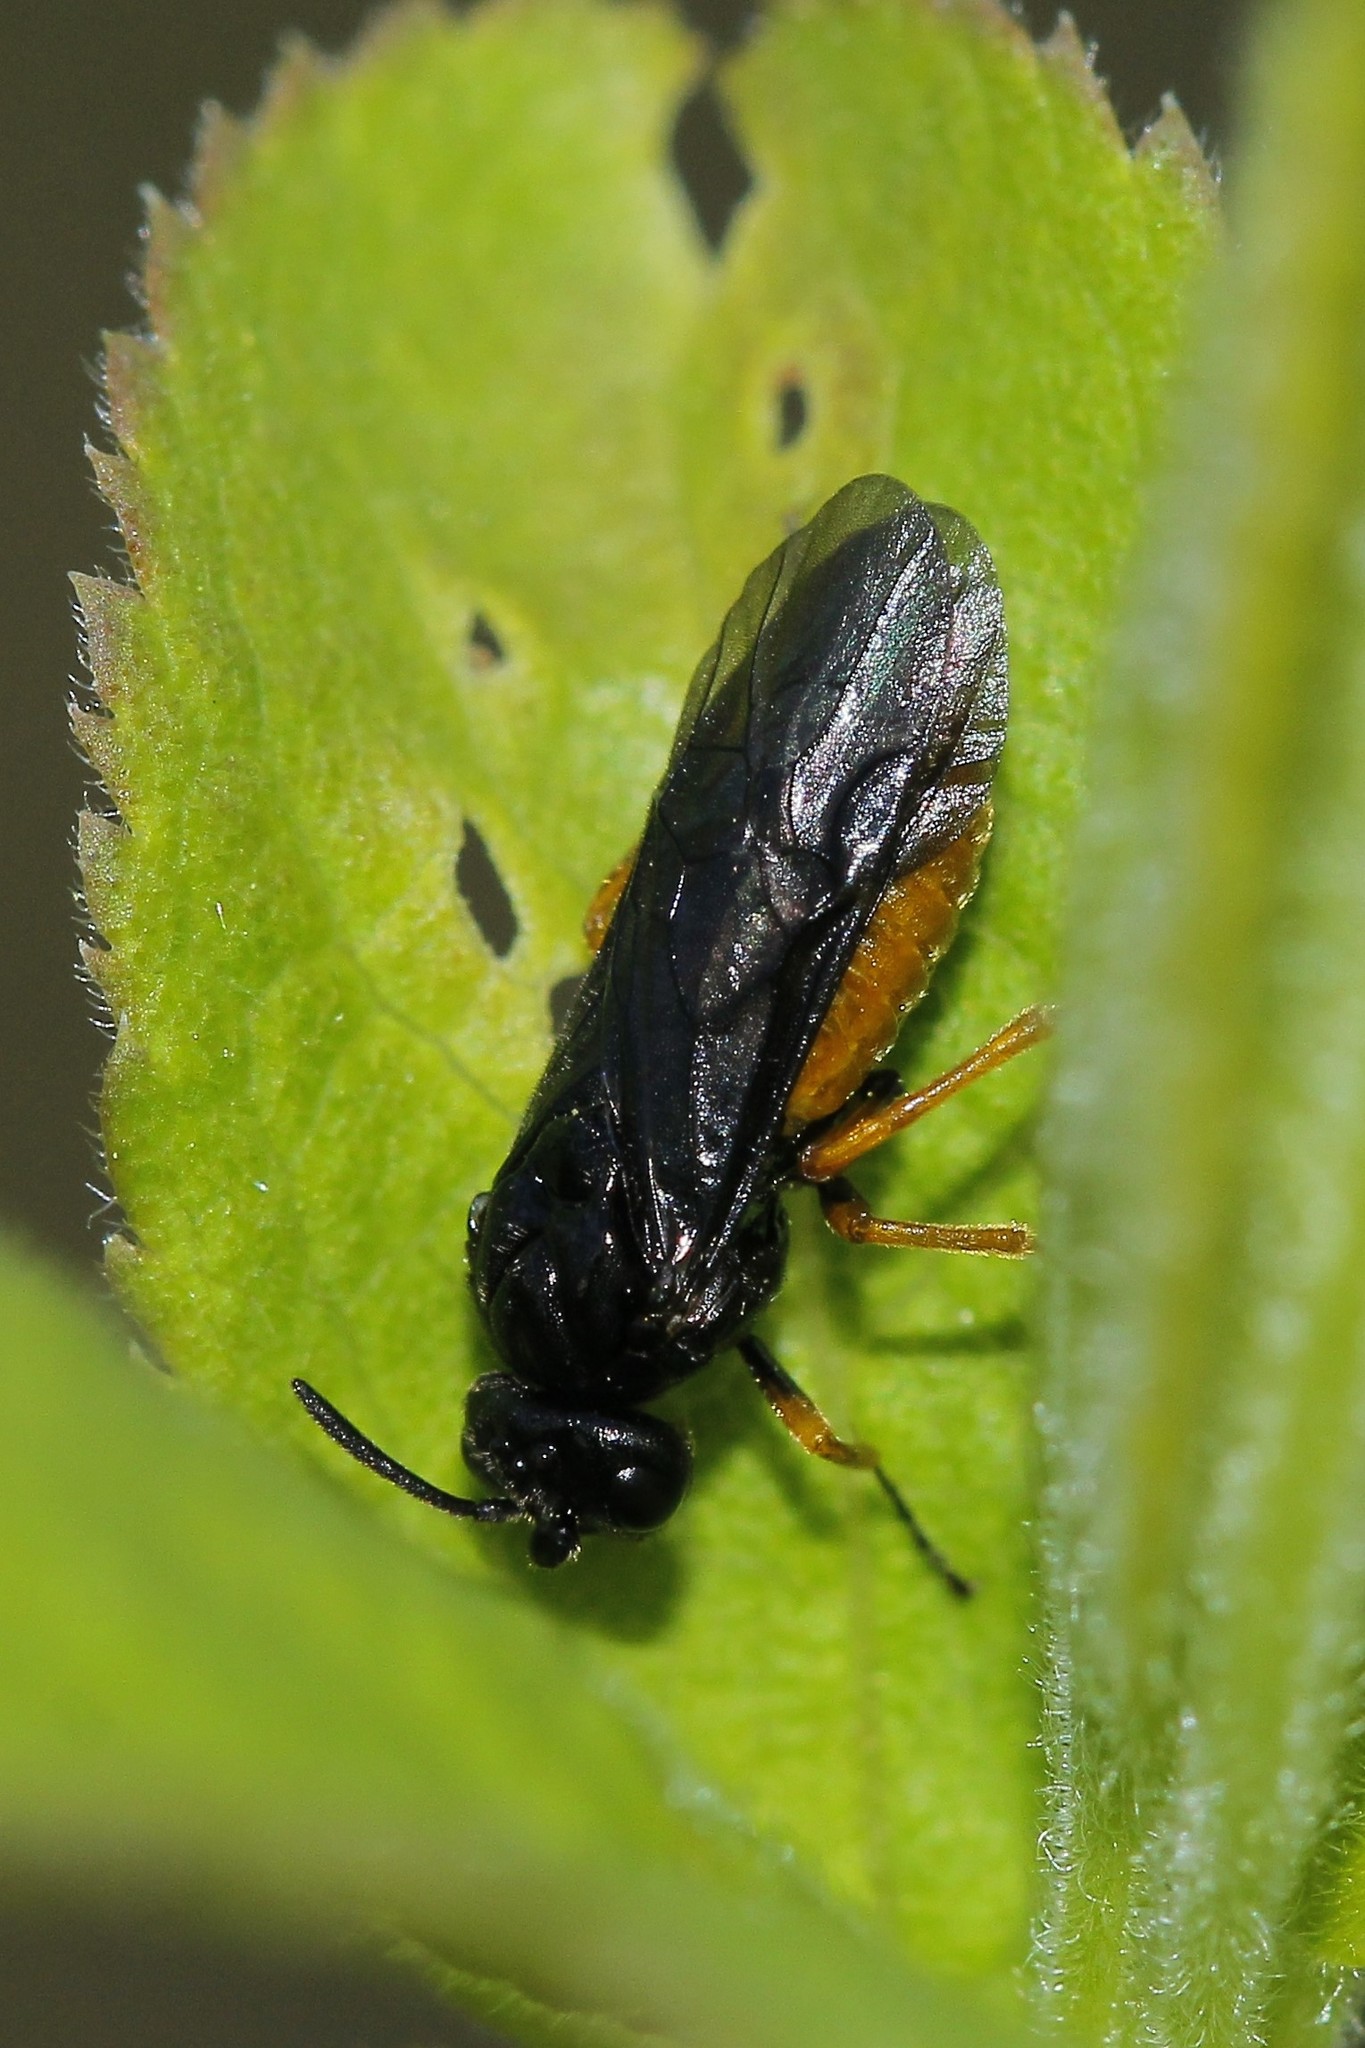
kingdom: Animalia
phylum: Arthropoda
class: Insecta
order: Hymenoptera
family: Argidae
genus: Sterictiphora
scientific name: Sterictiphora furcata
